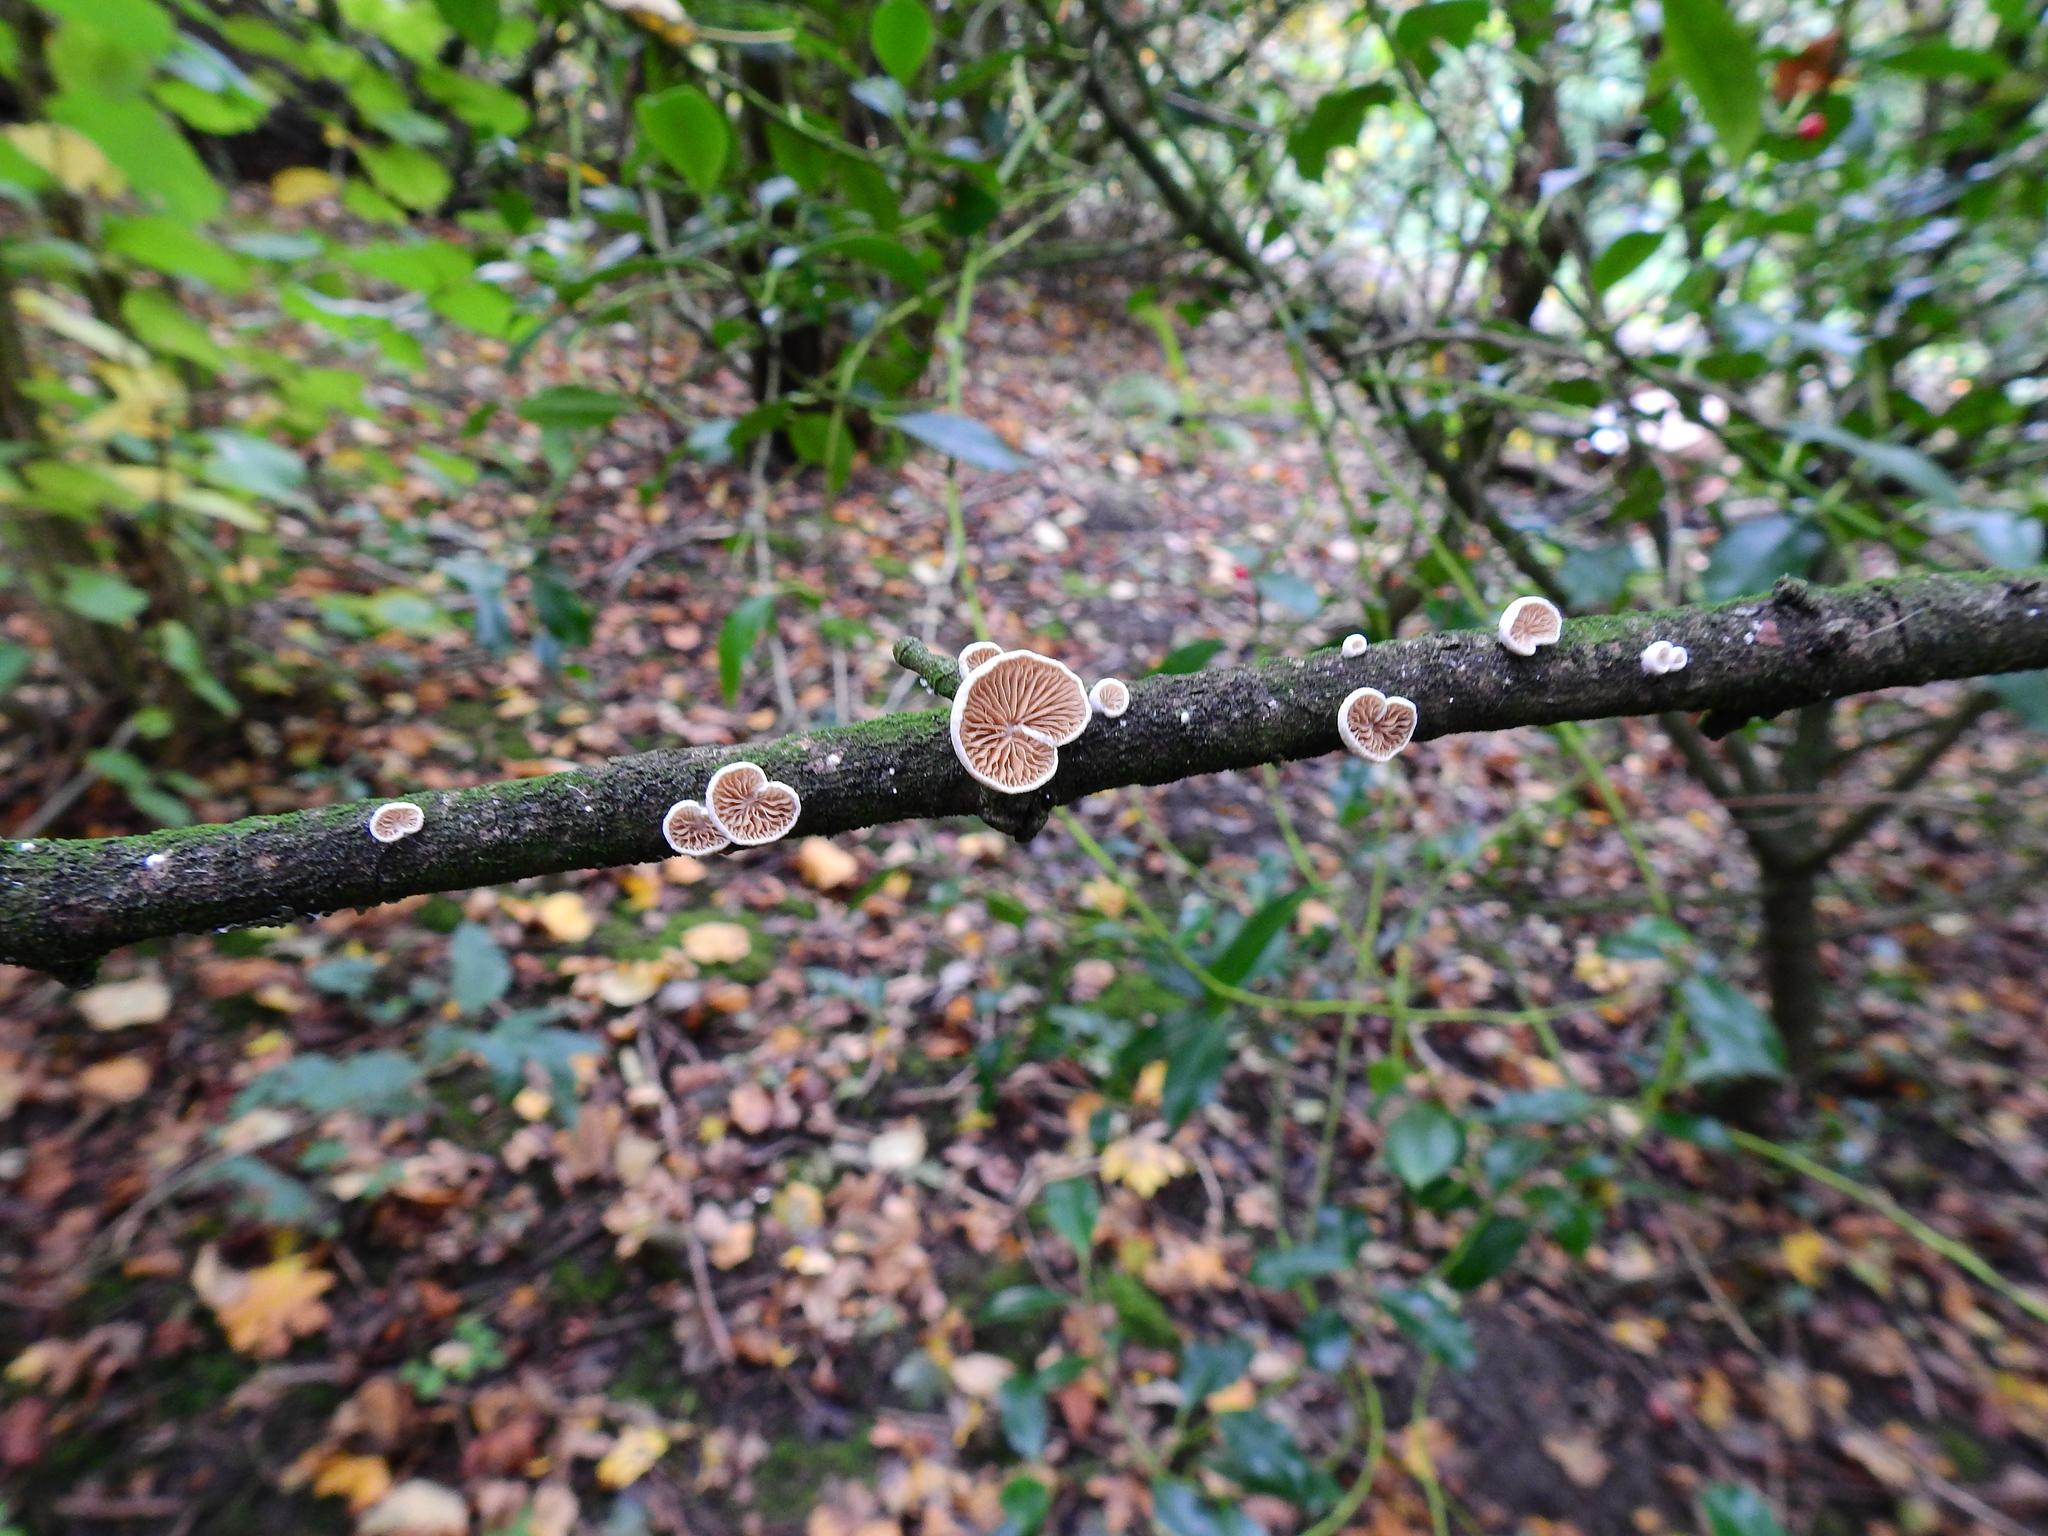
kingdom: Fungi
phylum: Basidiomycota
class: Agaricomycetes
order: Agaricales
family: Crepidotaceae
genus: Crepidotus
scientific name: Crepidotus
